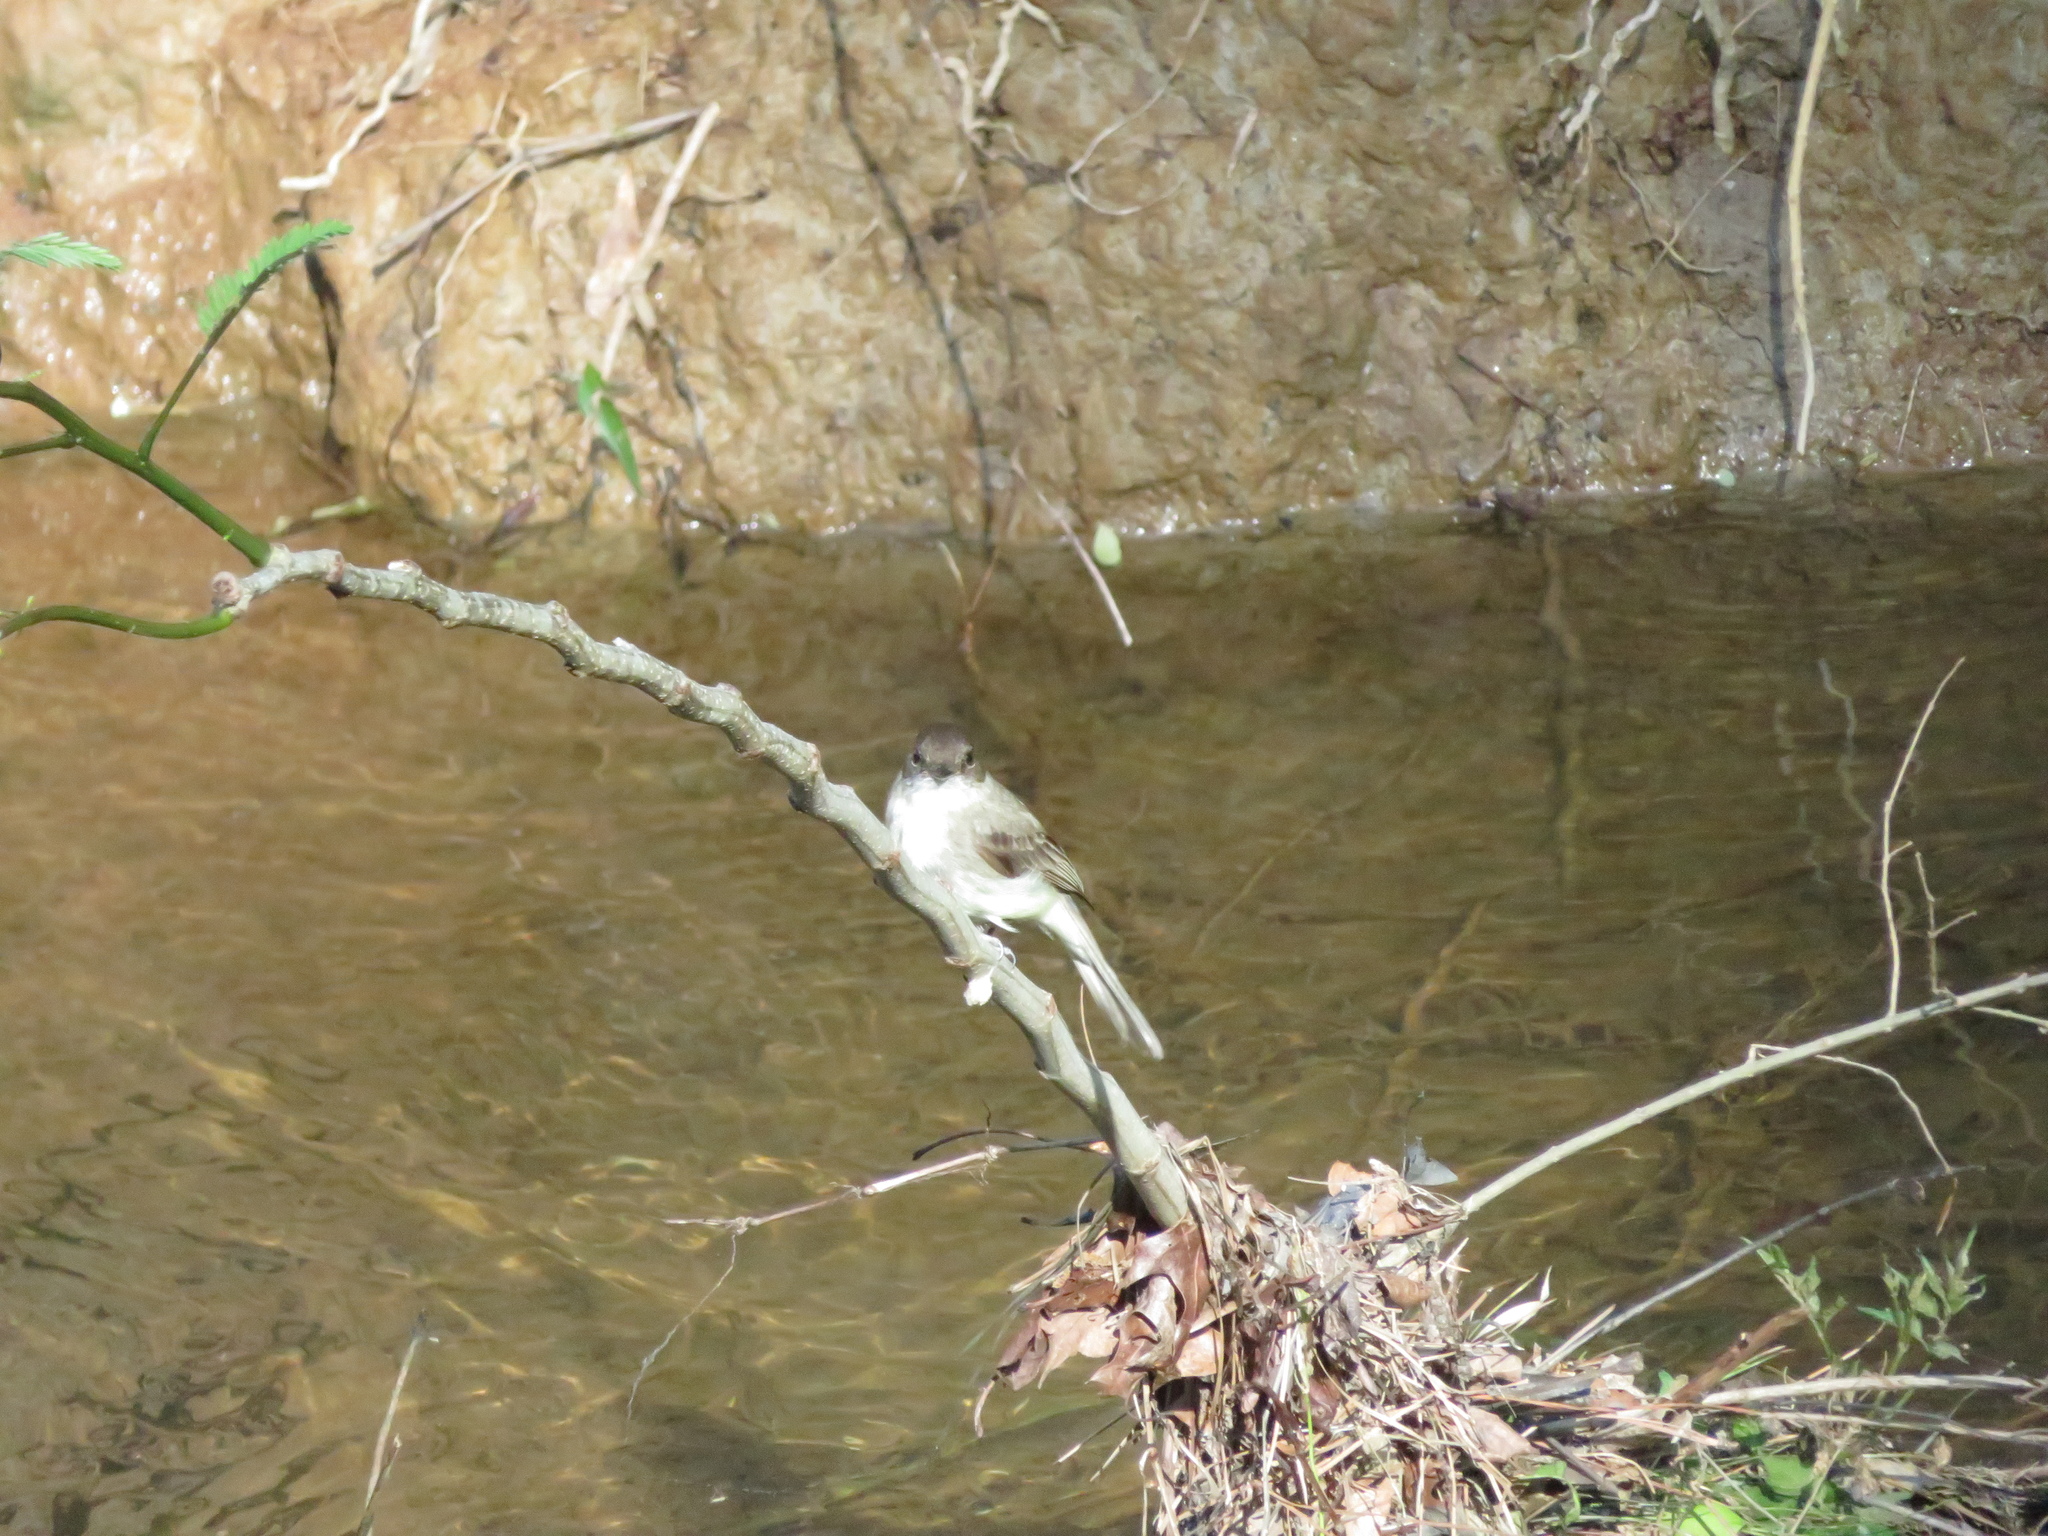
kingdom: Animalia
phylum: Chordata
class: Aves
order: Passeriformes
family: Tyrannidae
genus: Sayornis
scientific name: Sayornis phoebe
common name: Eastern phoebe
